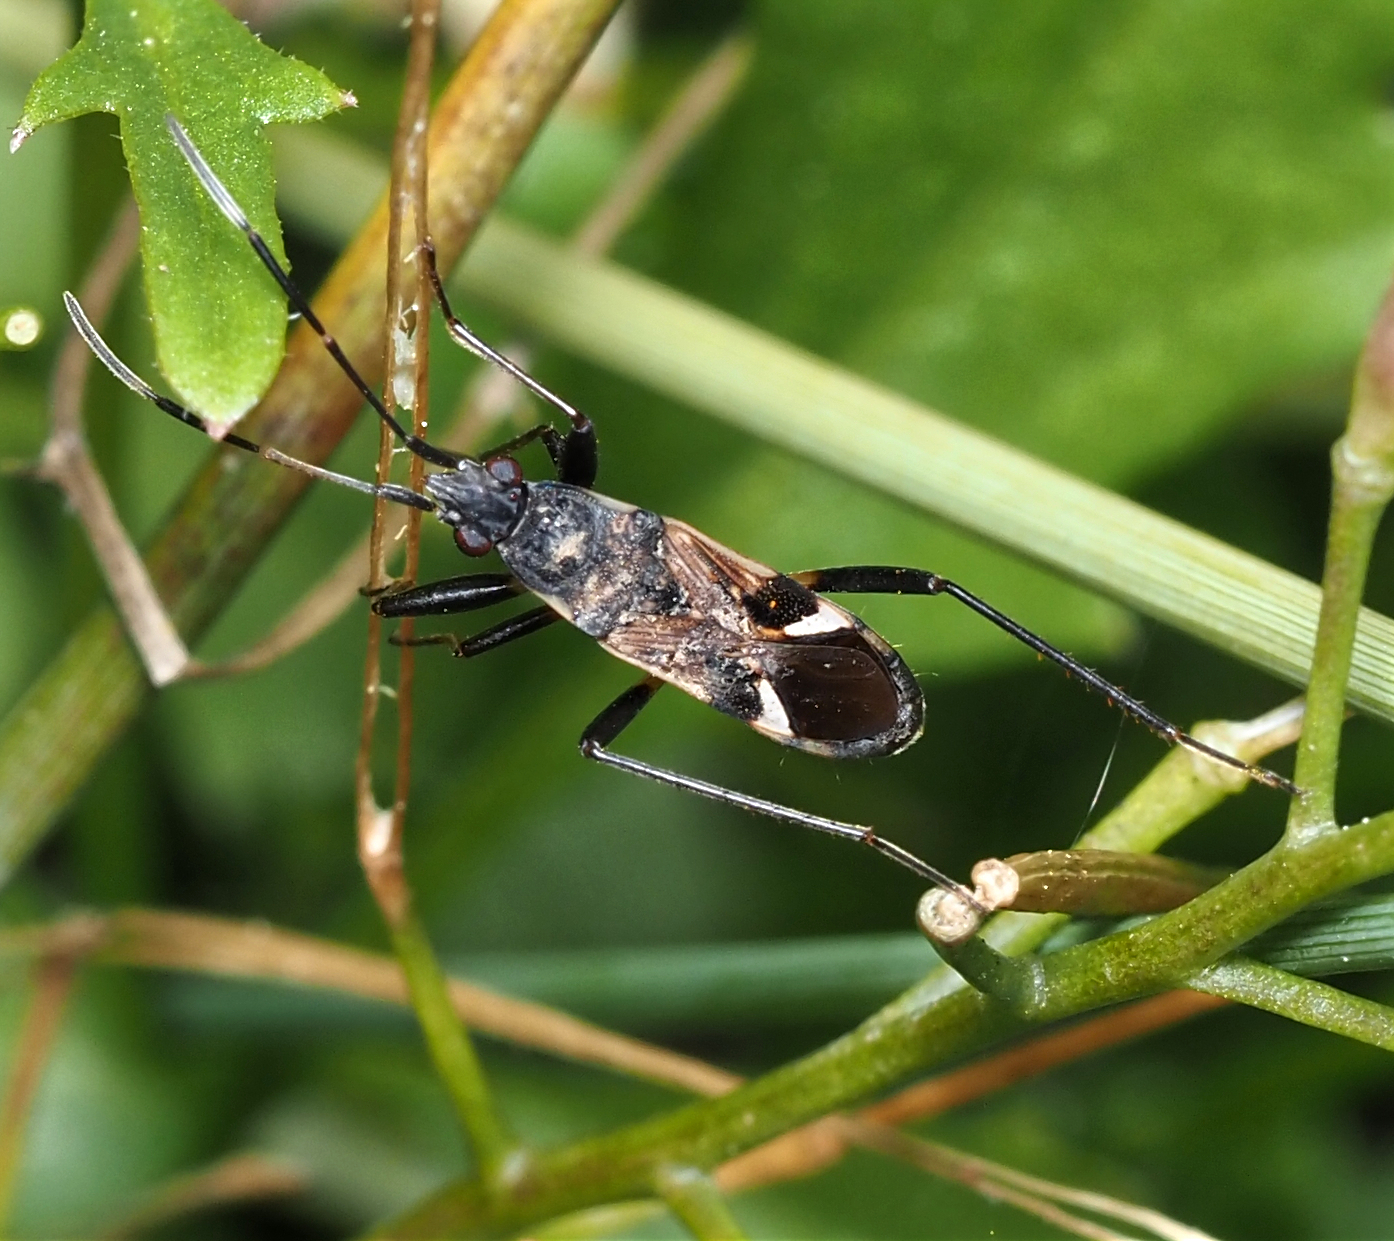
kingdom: Animalia
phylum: Arthropoda
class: Insecta
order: Hemiptera
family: Rhyparochromidae
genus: Dieuches
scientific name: Dieuches notatus
